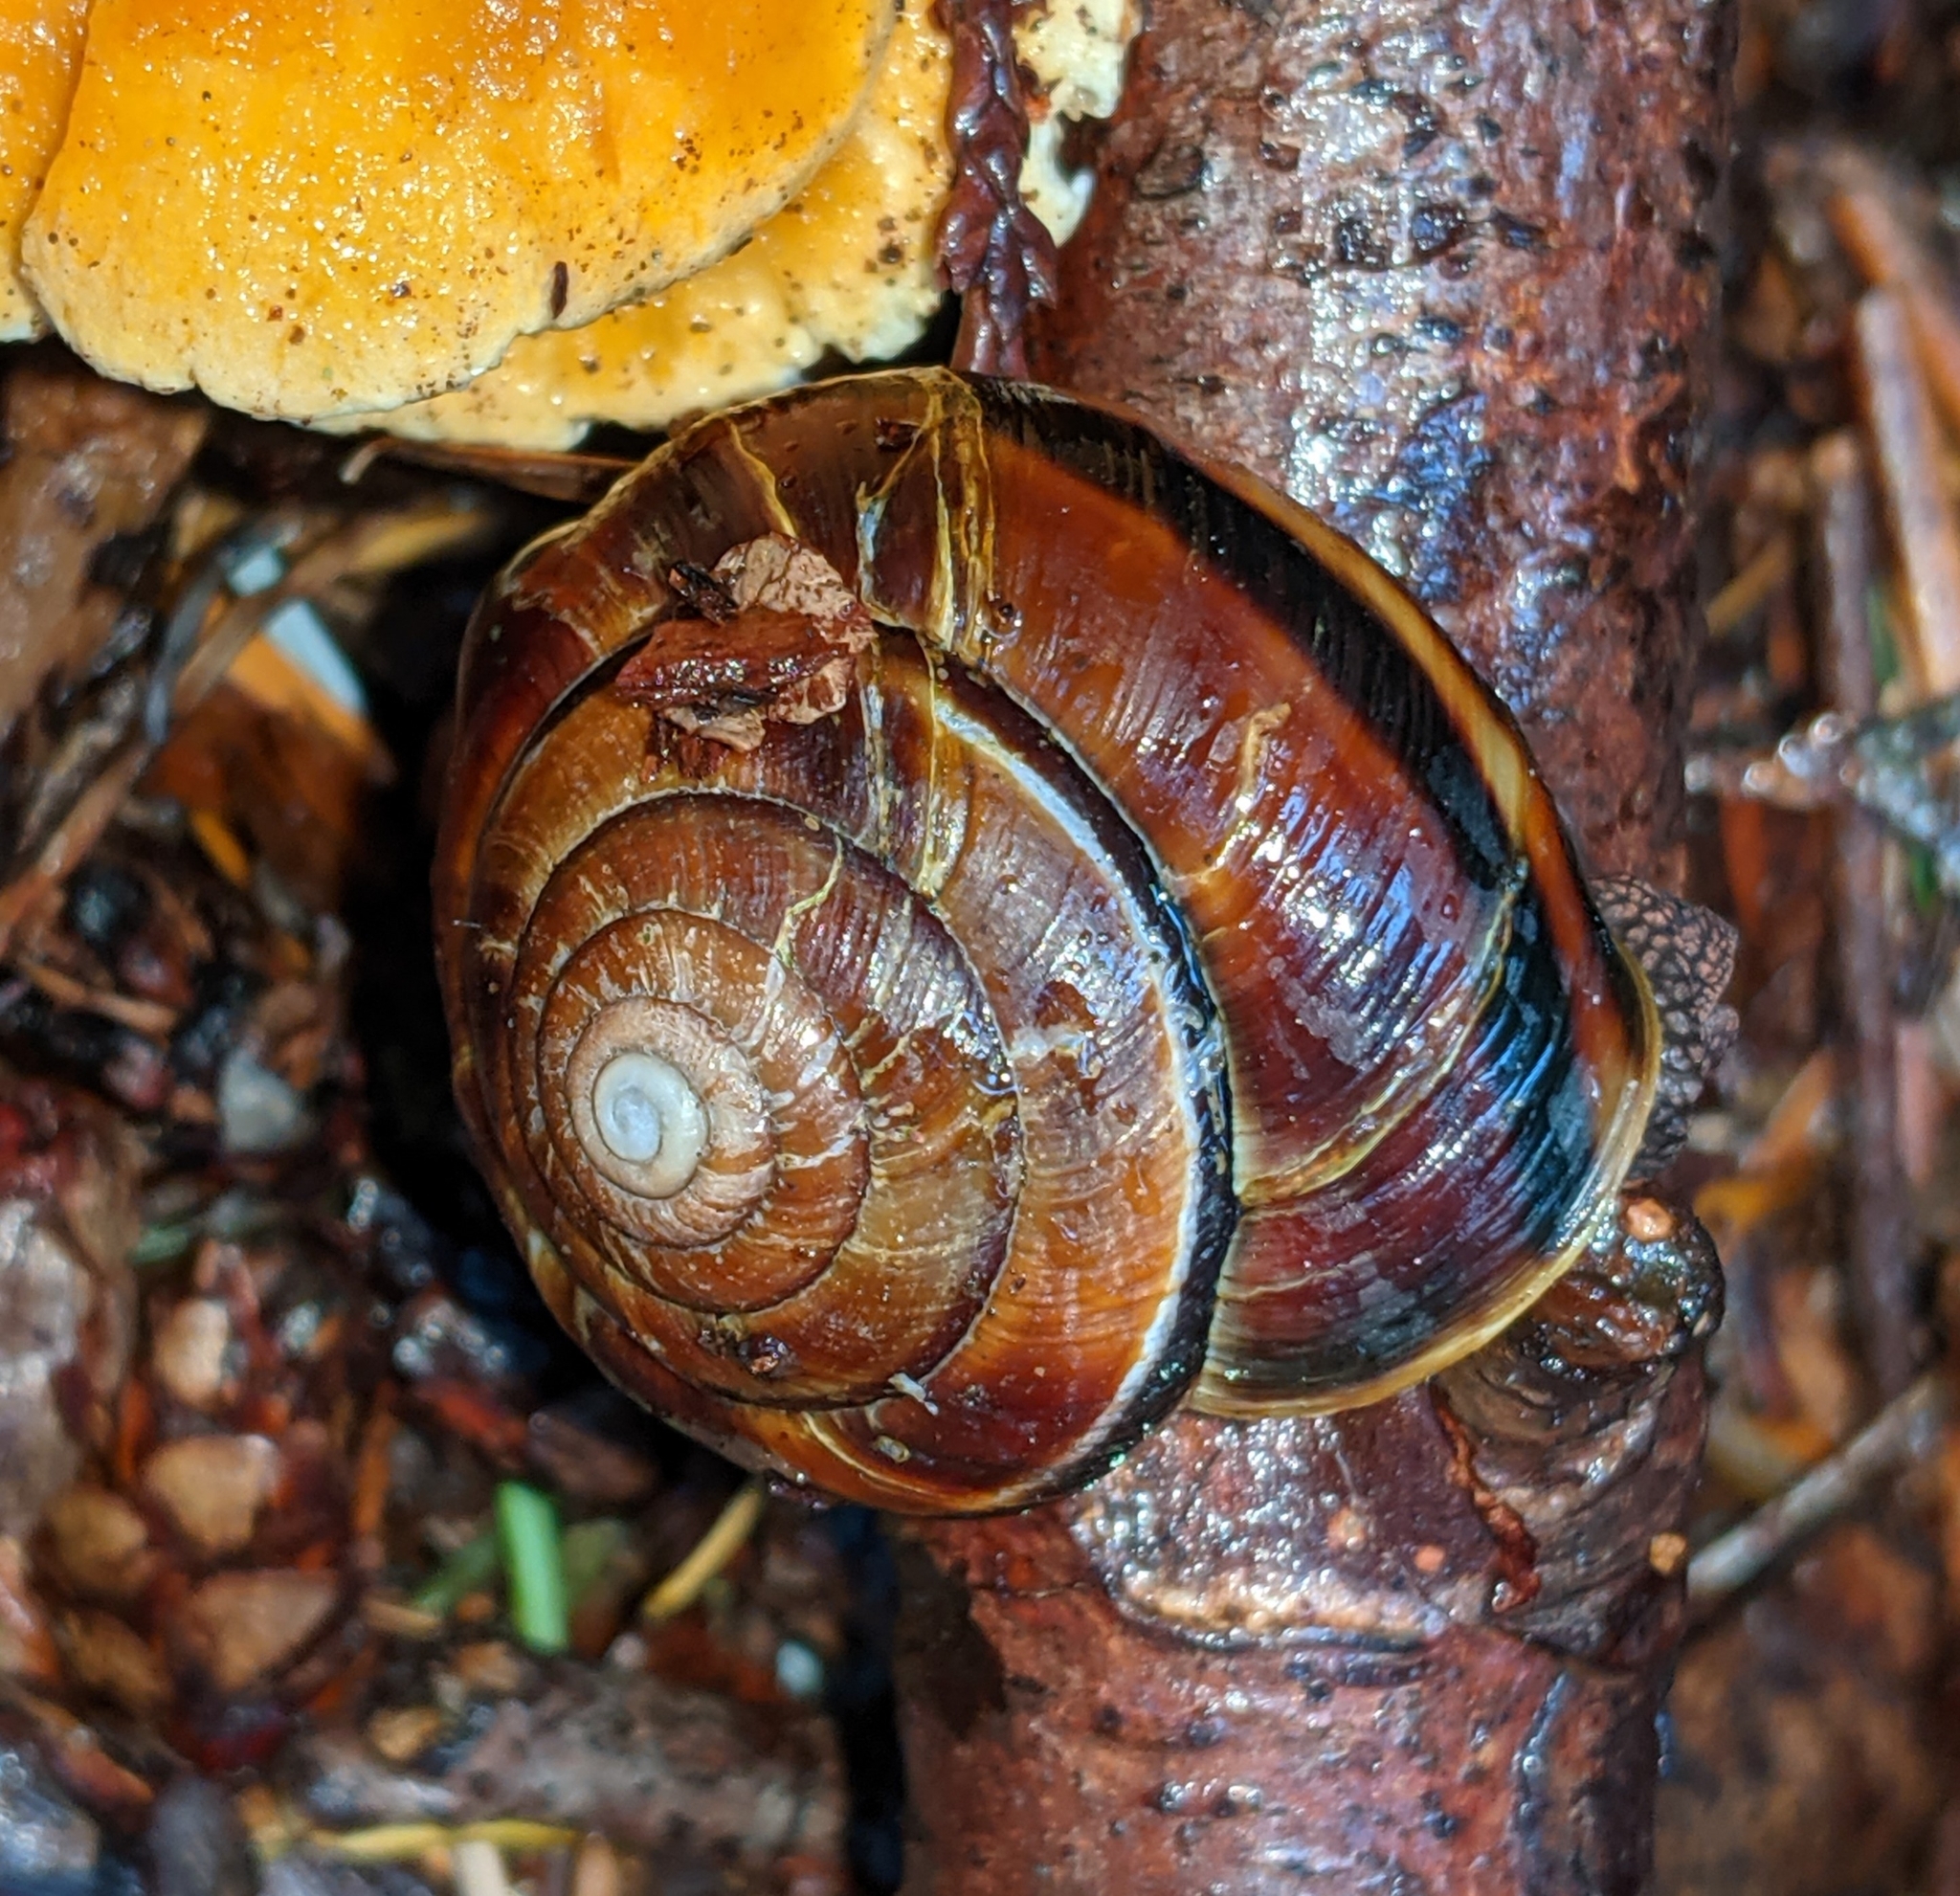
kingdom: Animalia
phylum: Mollusca
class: Gastropoda
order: Stylommatophora
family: Xanthonychidae
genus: Monadenia
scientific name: Monadenia fidelis
